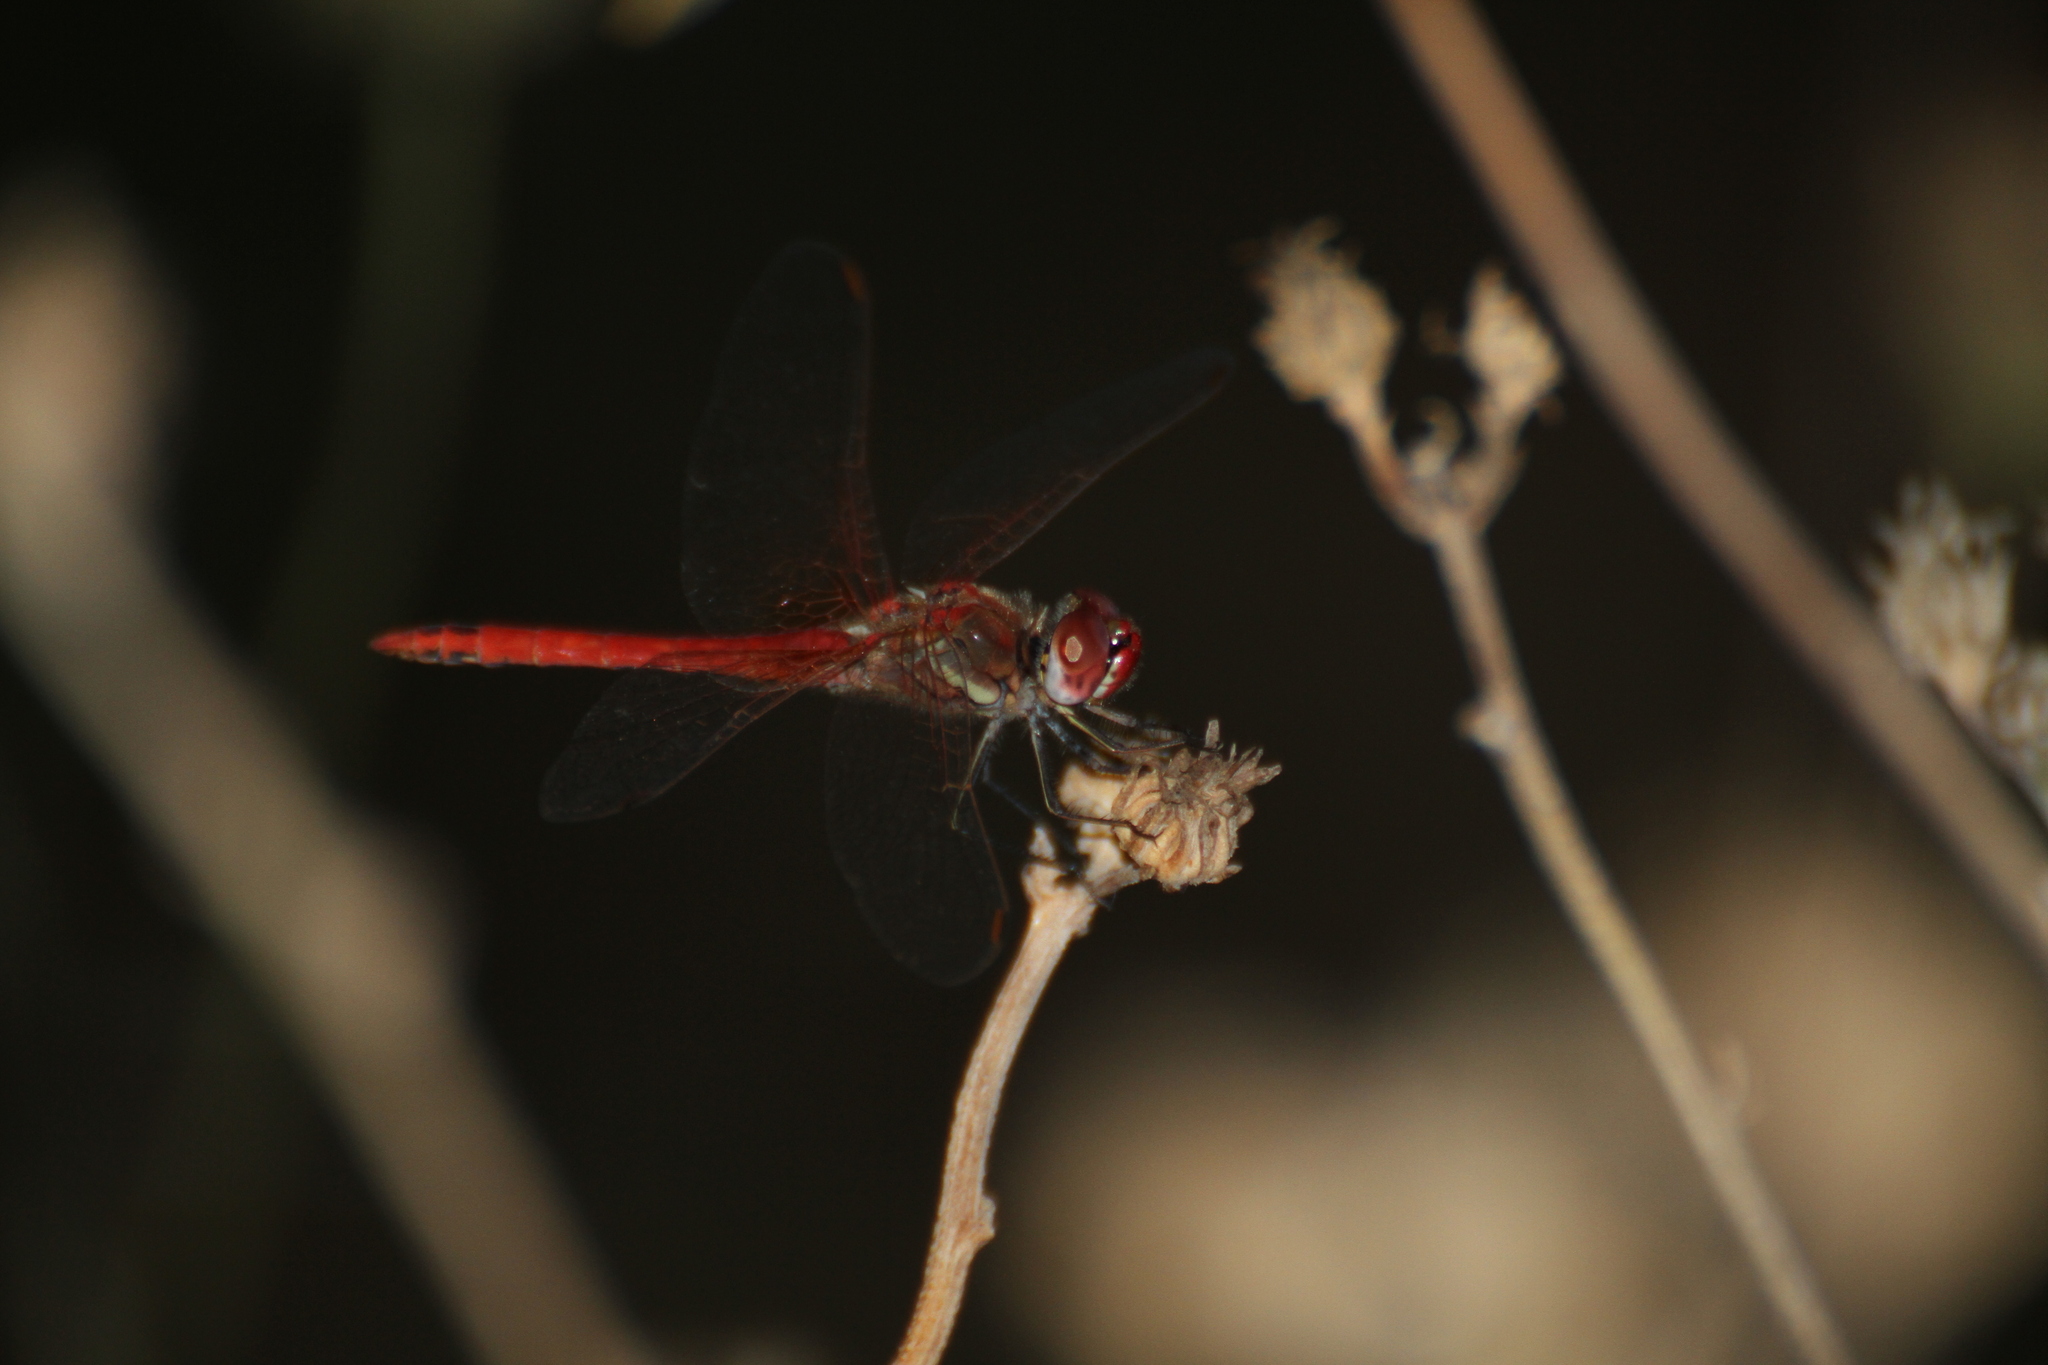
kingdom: Animalia
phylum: Arthropoda
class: Insecta
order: Odonata
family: Libellulidae
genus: Sympetrum
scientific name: Sympetrum fonscolombii
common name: Red-veined darter
